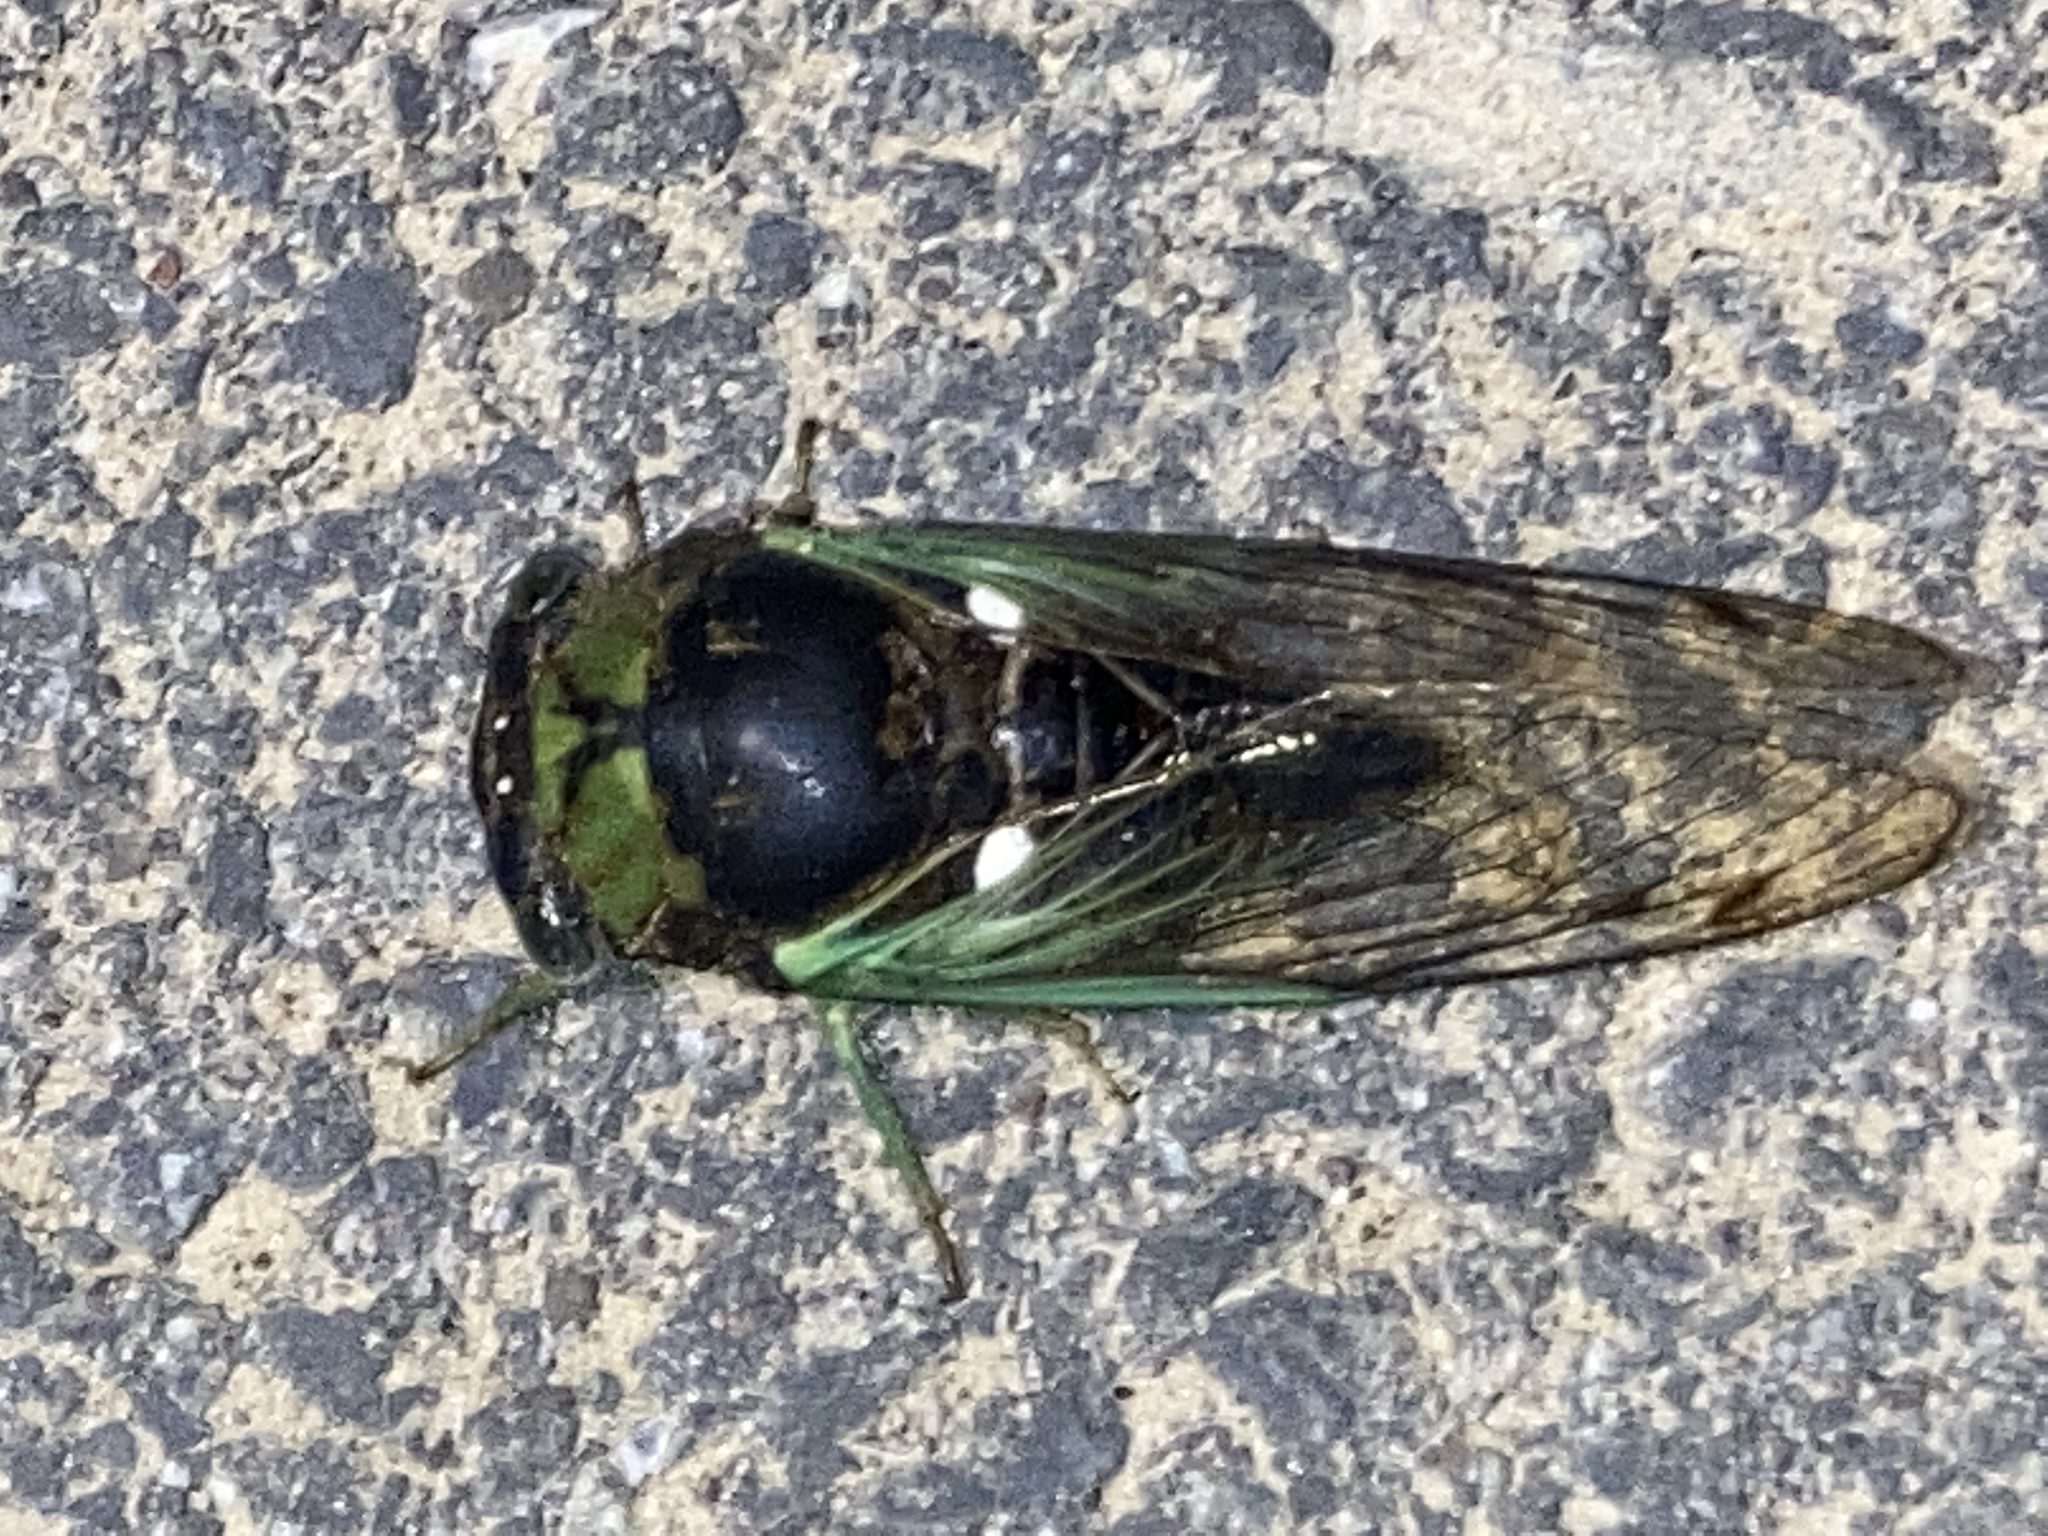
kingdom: Animalia
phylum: Arthropoda
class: Insecta
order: Hemiptera
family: Cicadidae
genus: Neotibicen
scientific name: Neotibicen tibicen
